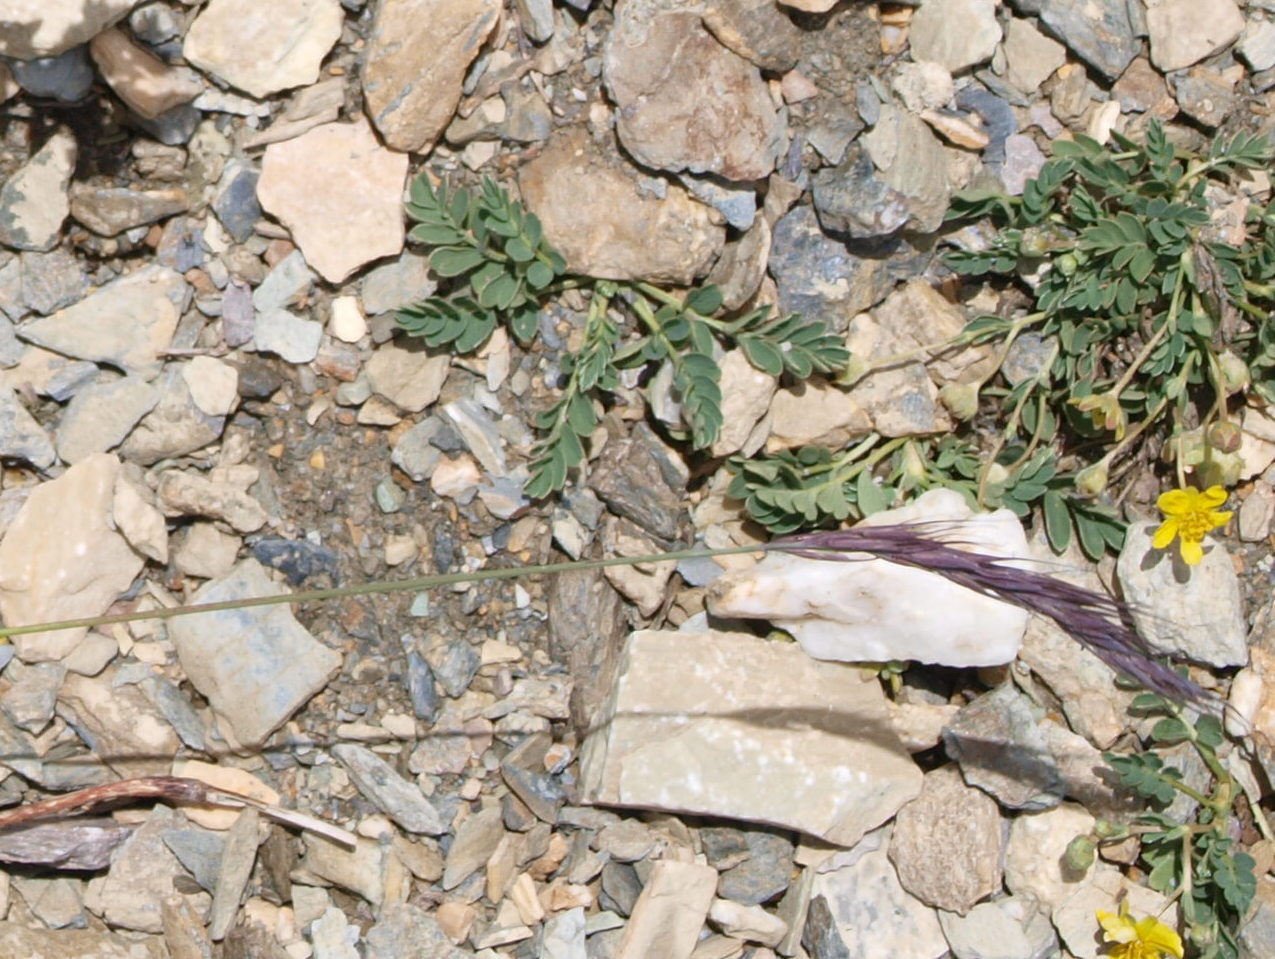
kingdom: Plantae
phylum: Tracheophyta
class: Magnoliopsida
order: Rosales
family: Rosaceae
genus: Sibbaldianthe
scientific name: Sibbaldianthe bifurca
